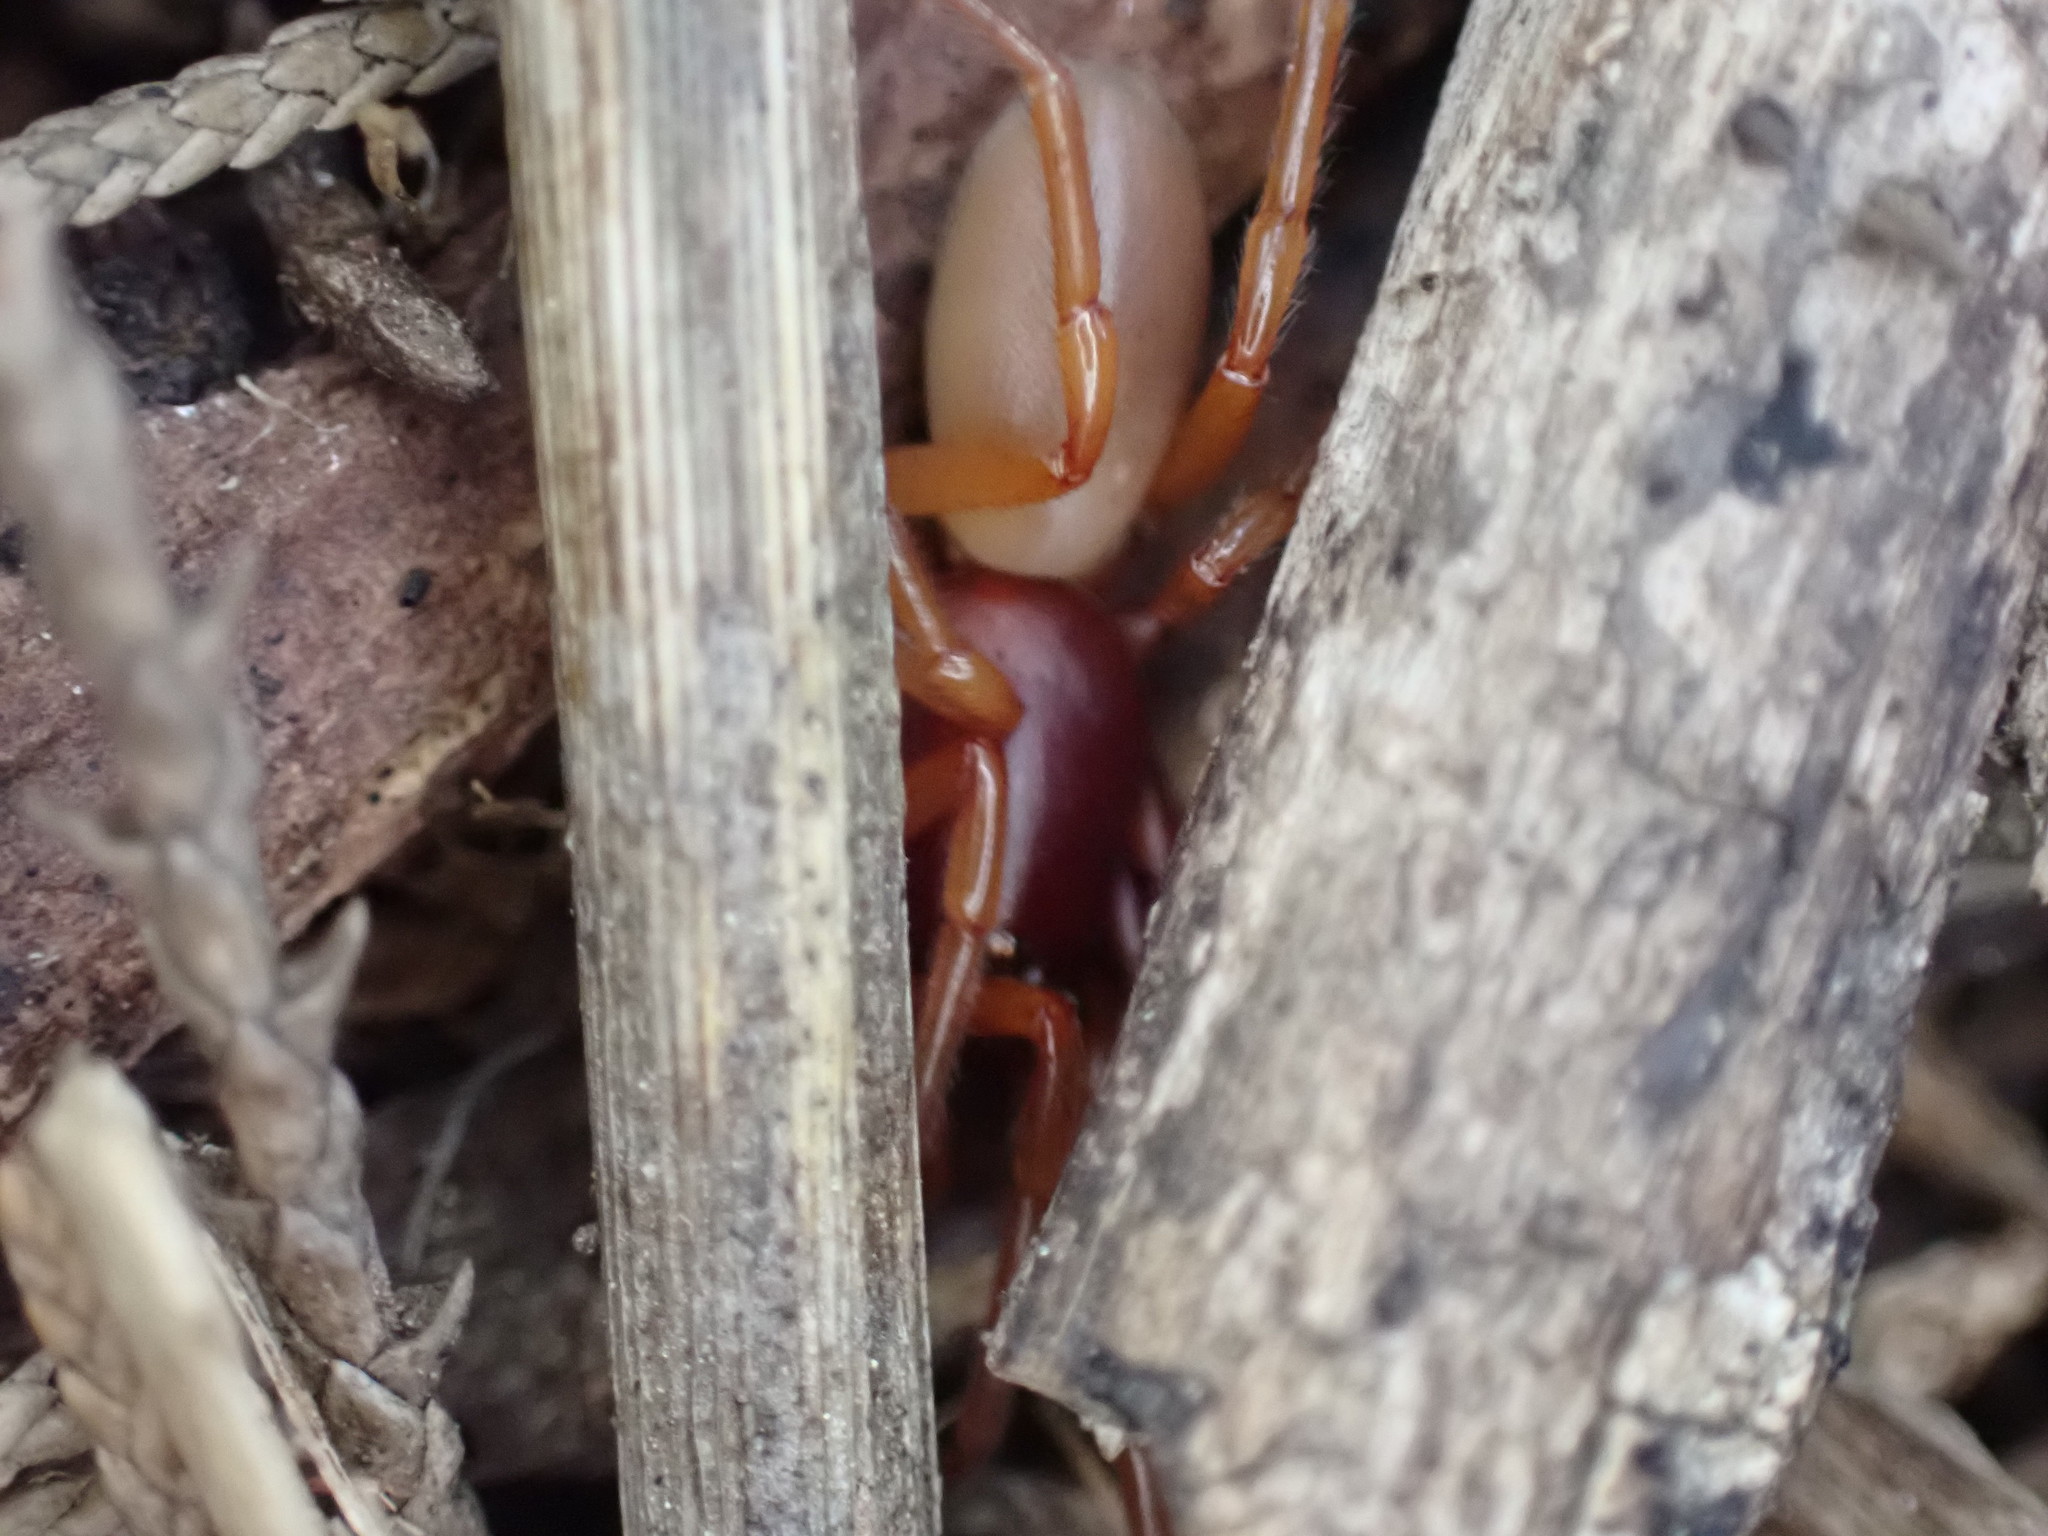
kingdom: Animalia
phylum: Arthropoda
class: Arachnida
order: Araneae
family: Dysderidae
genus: Dysdera
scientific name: Dysdera crocata
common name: Woodlouse spider
